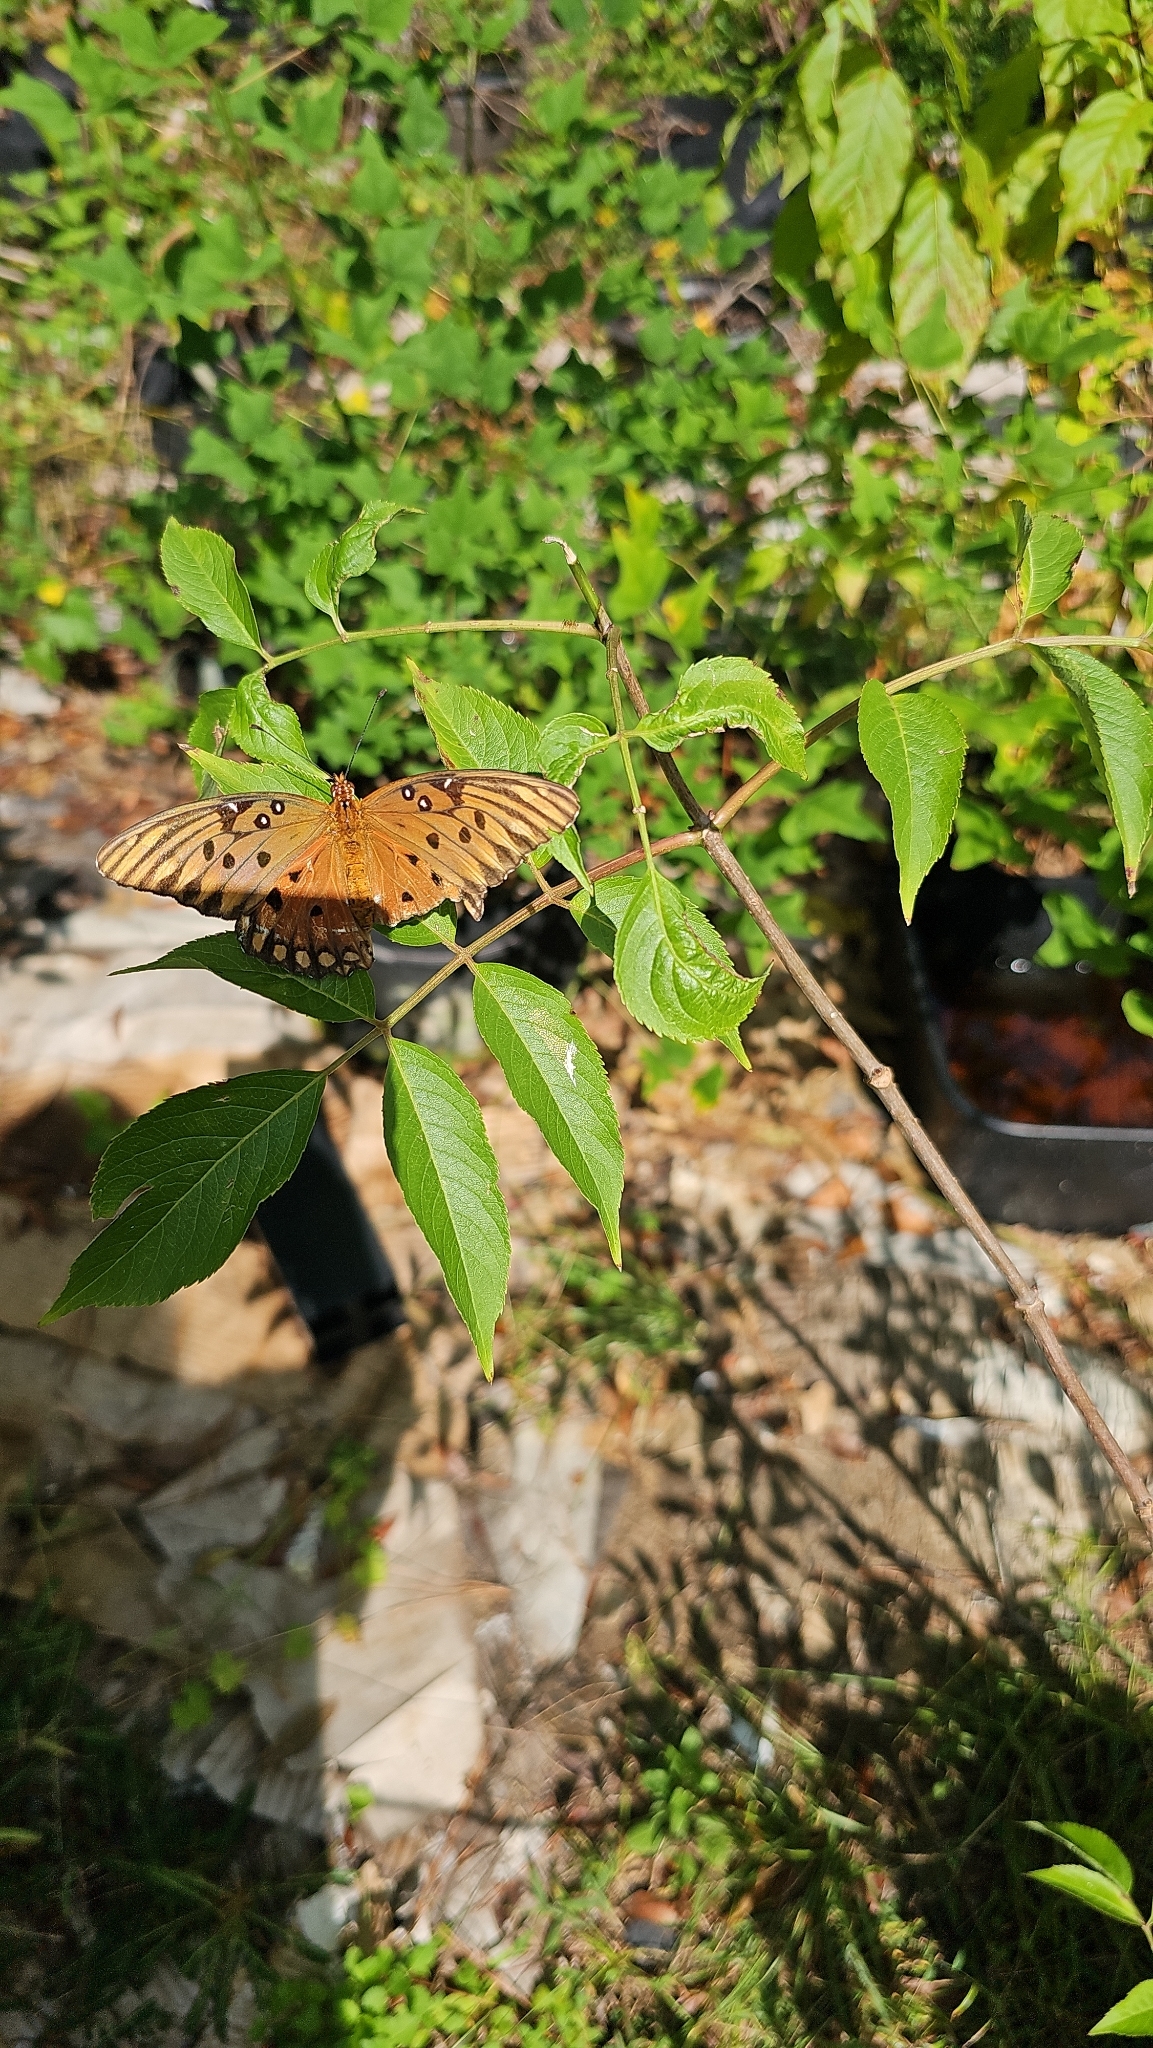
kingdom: Animalia
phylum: Arthropoda
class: Insecta
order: Lepidoptera
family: Nymphalidae
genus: Dione
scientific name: Dione vanillae
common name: Gulf fritillary
